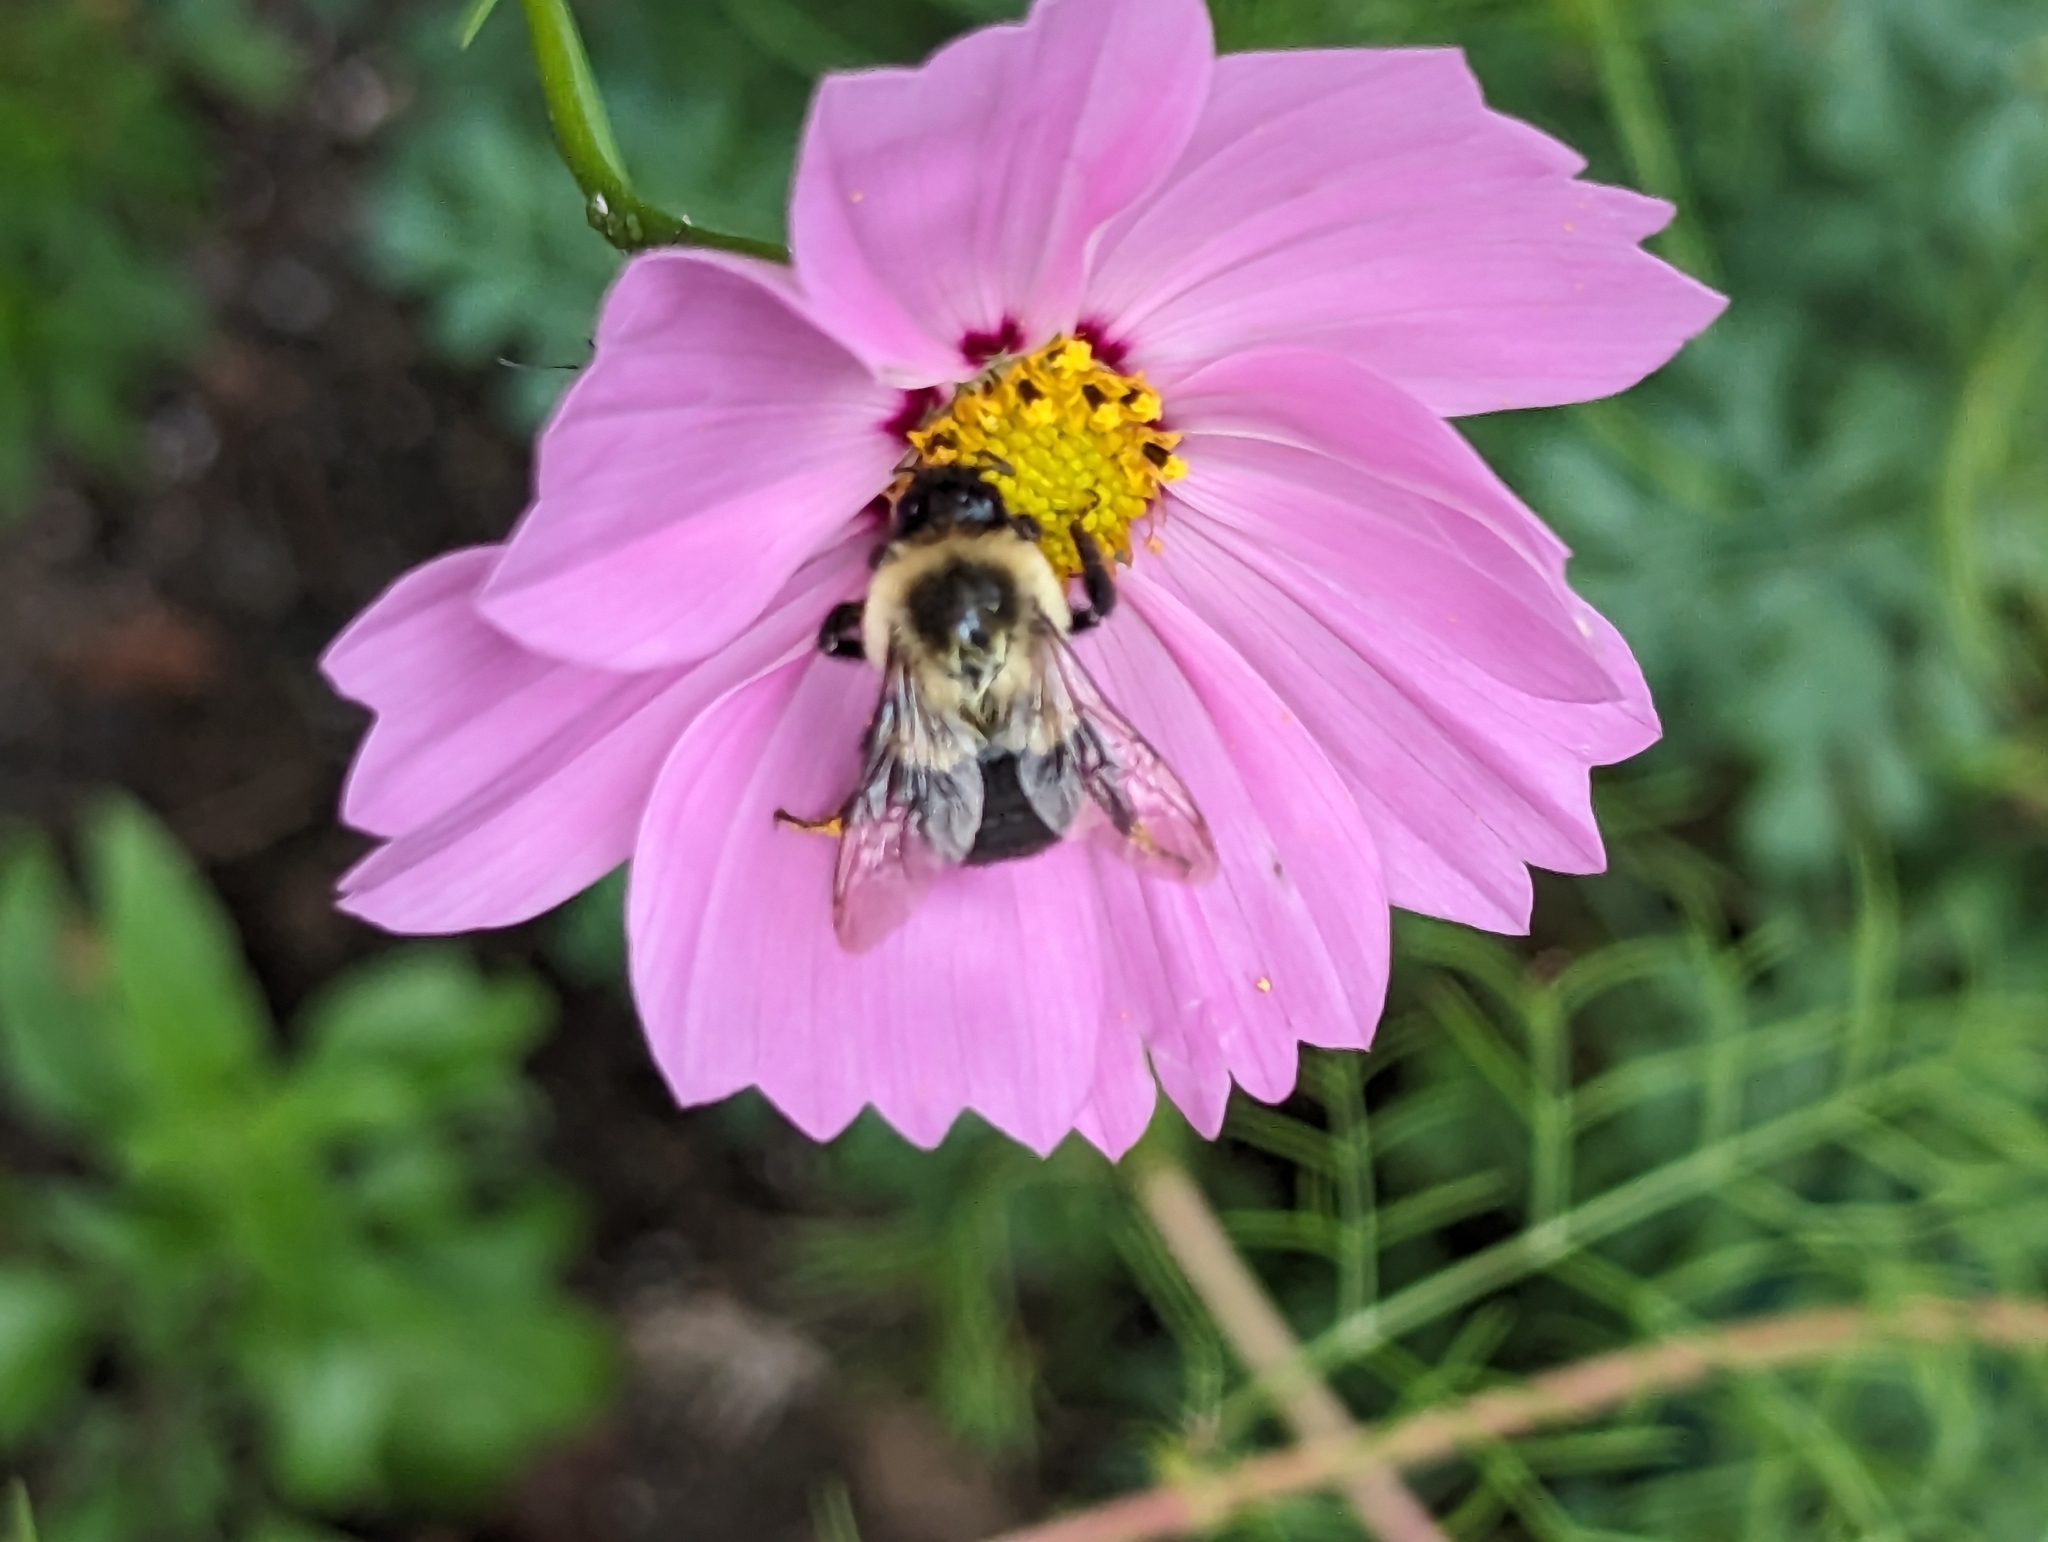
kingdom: Animalia
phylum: Arthropoda
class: Insecta
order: Hymenoptera
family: Apidae
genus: Bombus
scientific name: Bombus impatiens
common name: Common eastern bumble bee
